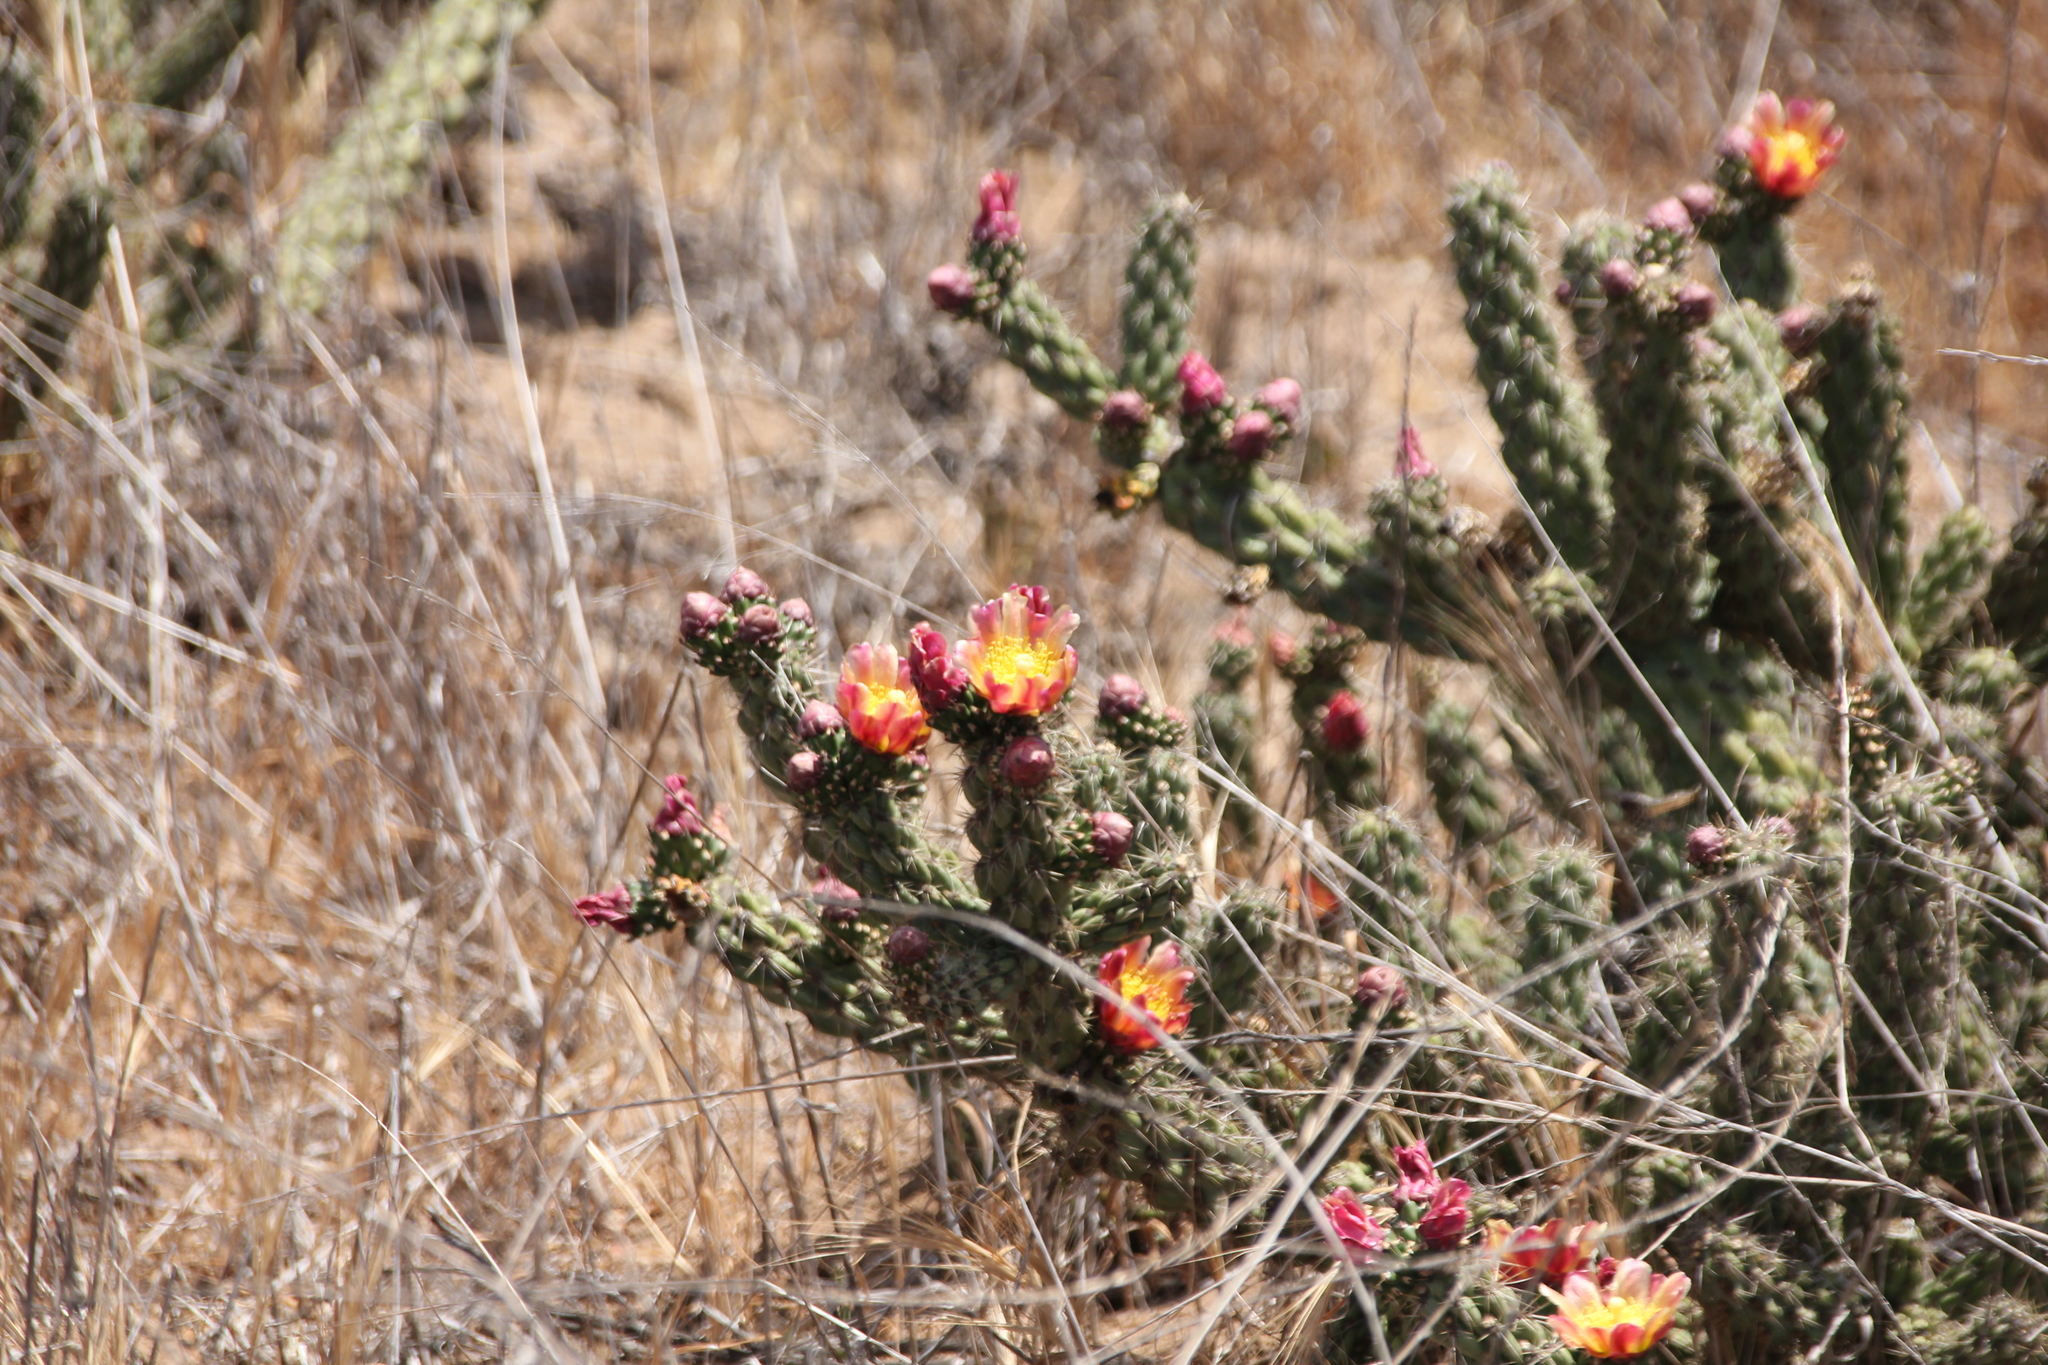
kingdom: Plantae
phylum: Tracheophyta
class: Magnoliopsida
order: Caryophyllales
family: Cactaceae
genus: Cylindropuntia
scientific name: Cylindropuntia californica
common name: Snake cholla
